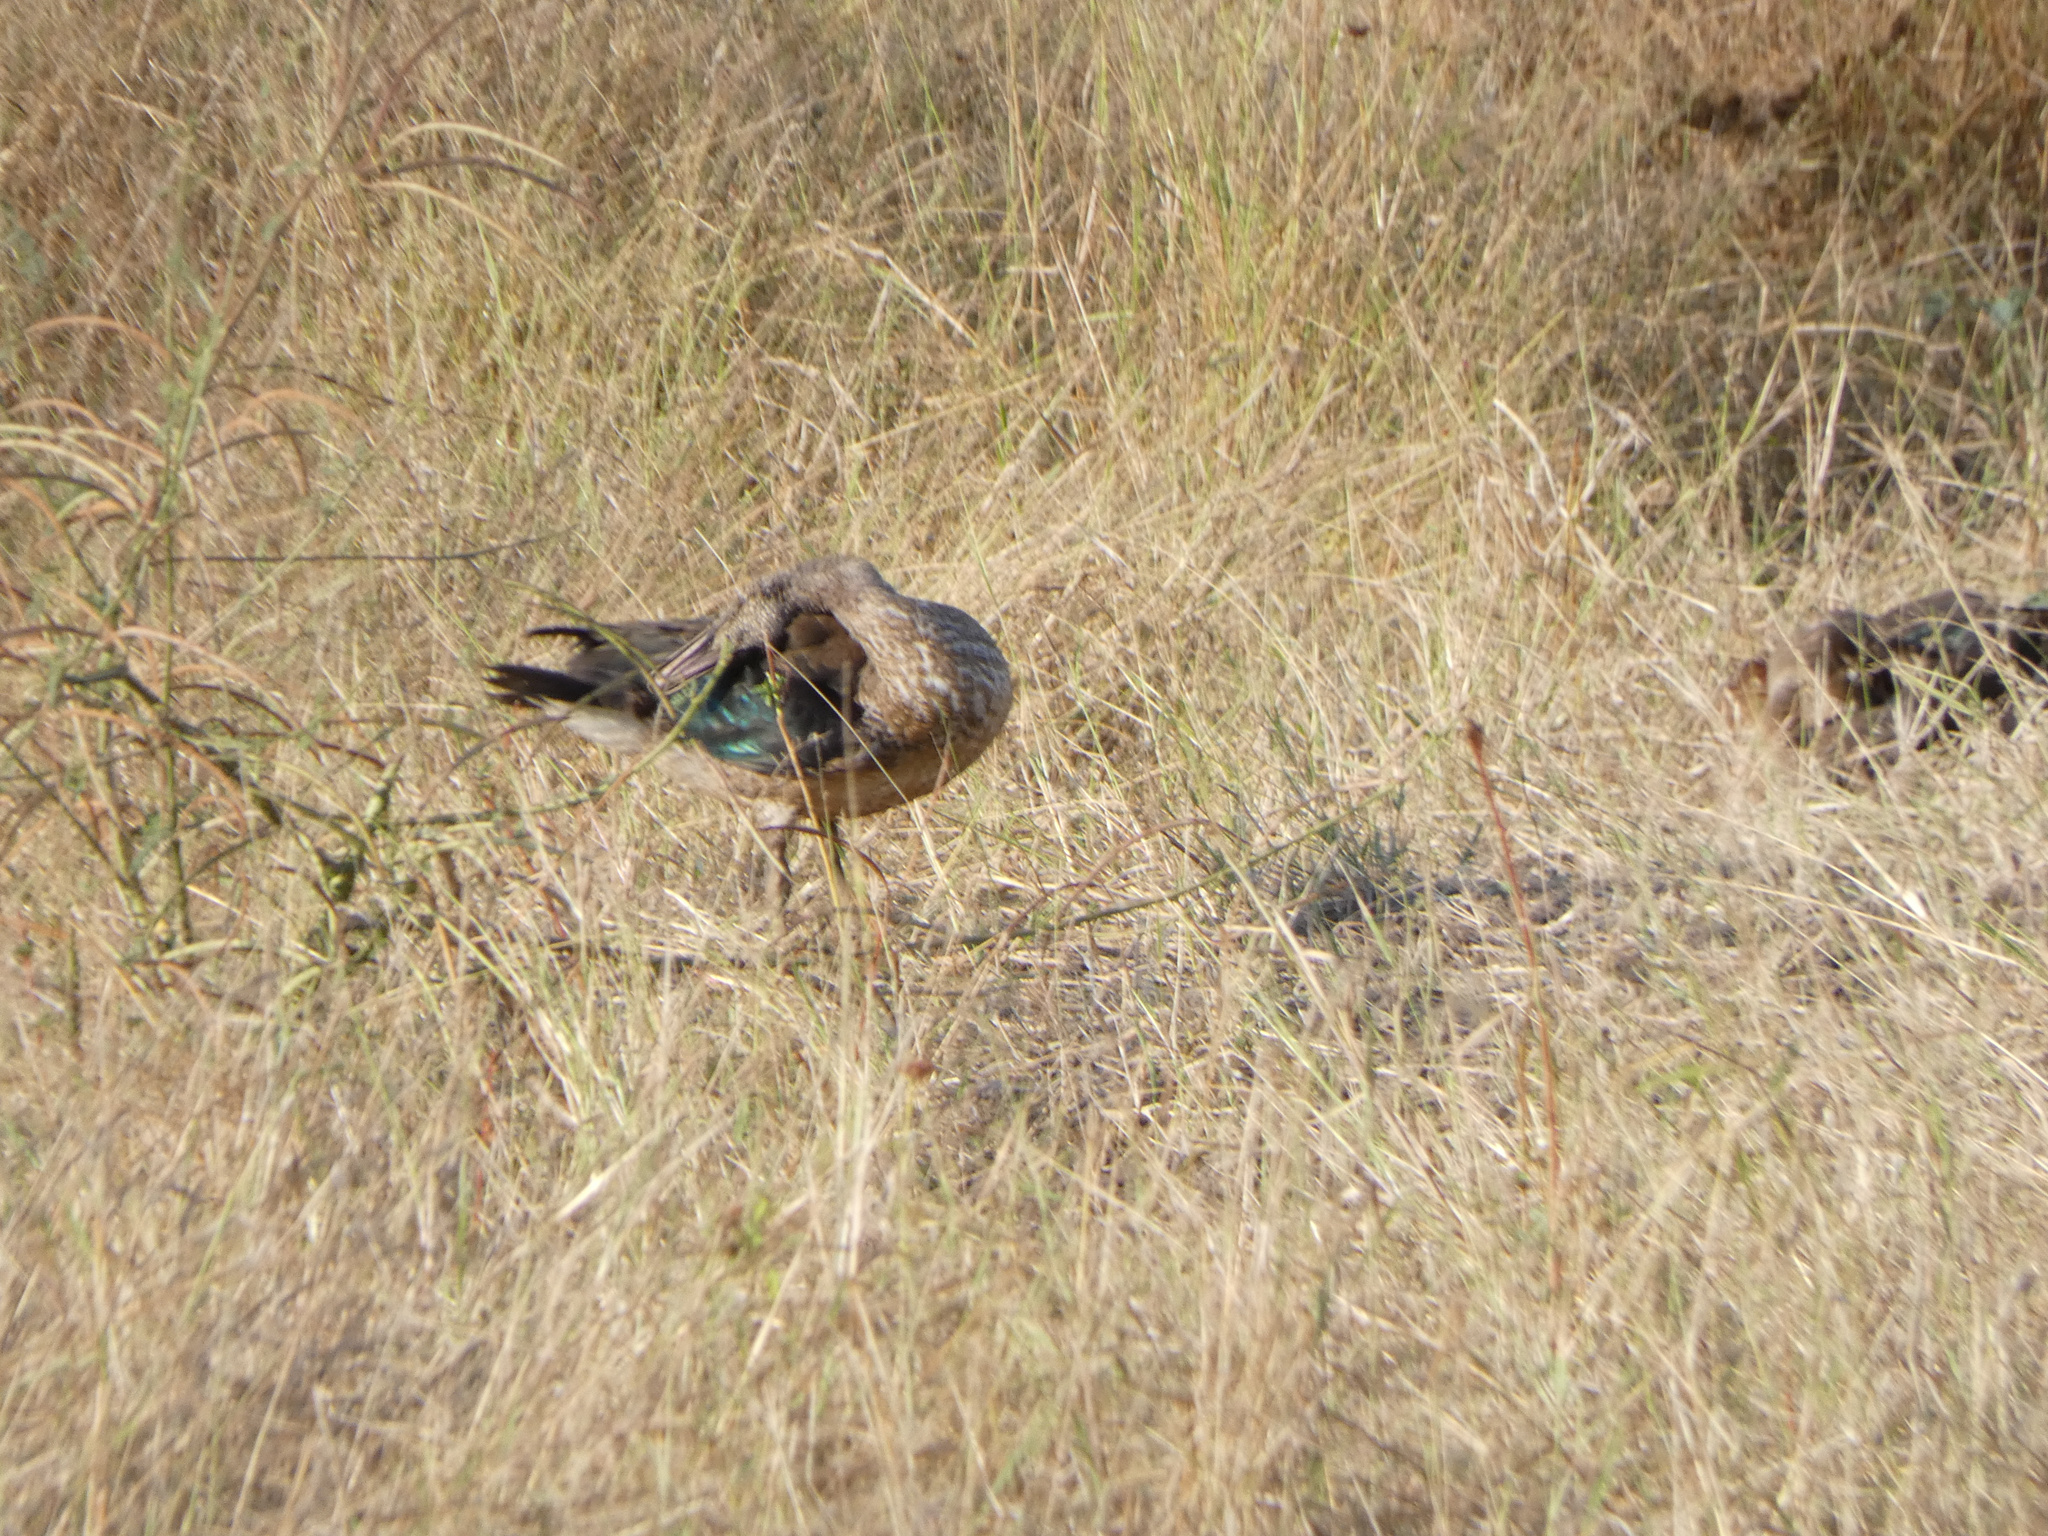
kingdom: Animalia
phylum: Chordata
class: Aves
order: Anseriformes
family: Anatidae
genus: Sarkidiornis
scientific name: Sarkidiornis melanotos
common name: Comb duck
